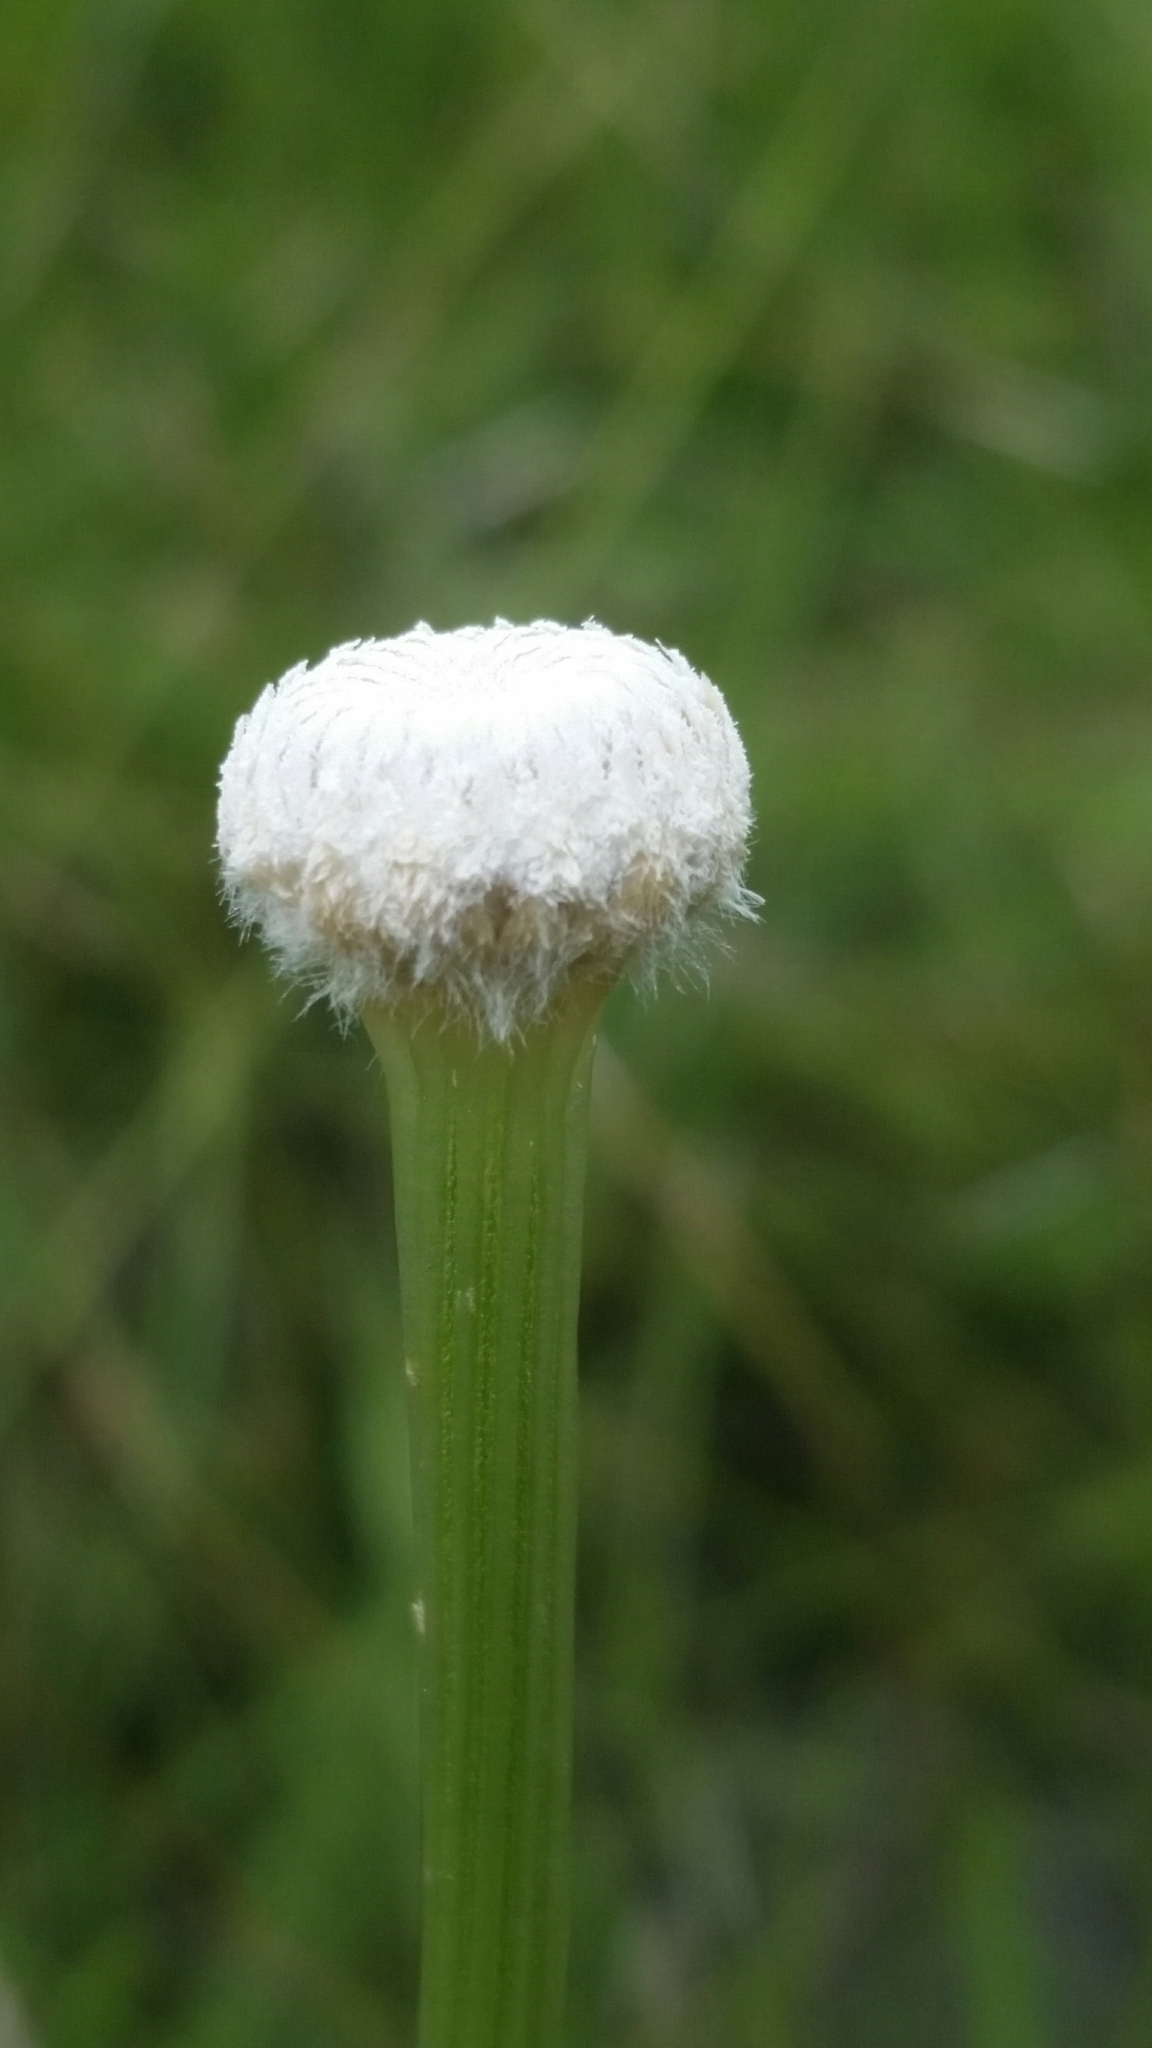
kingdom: Plantae
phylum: Tracheophyta
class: Liliopsida
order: Poales
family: Eriocaulaceae
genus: Eriocaulon
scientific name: Eriocaulon decangulare
